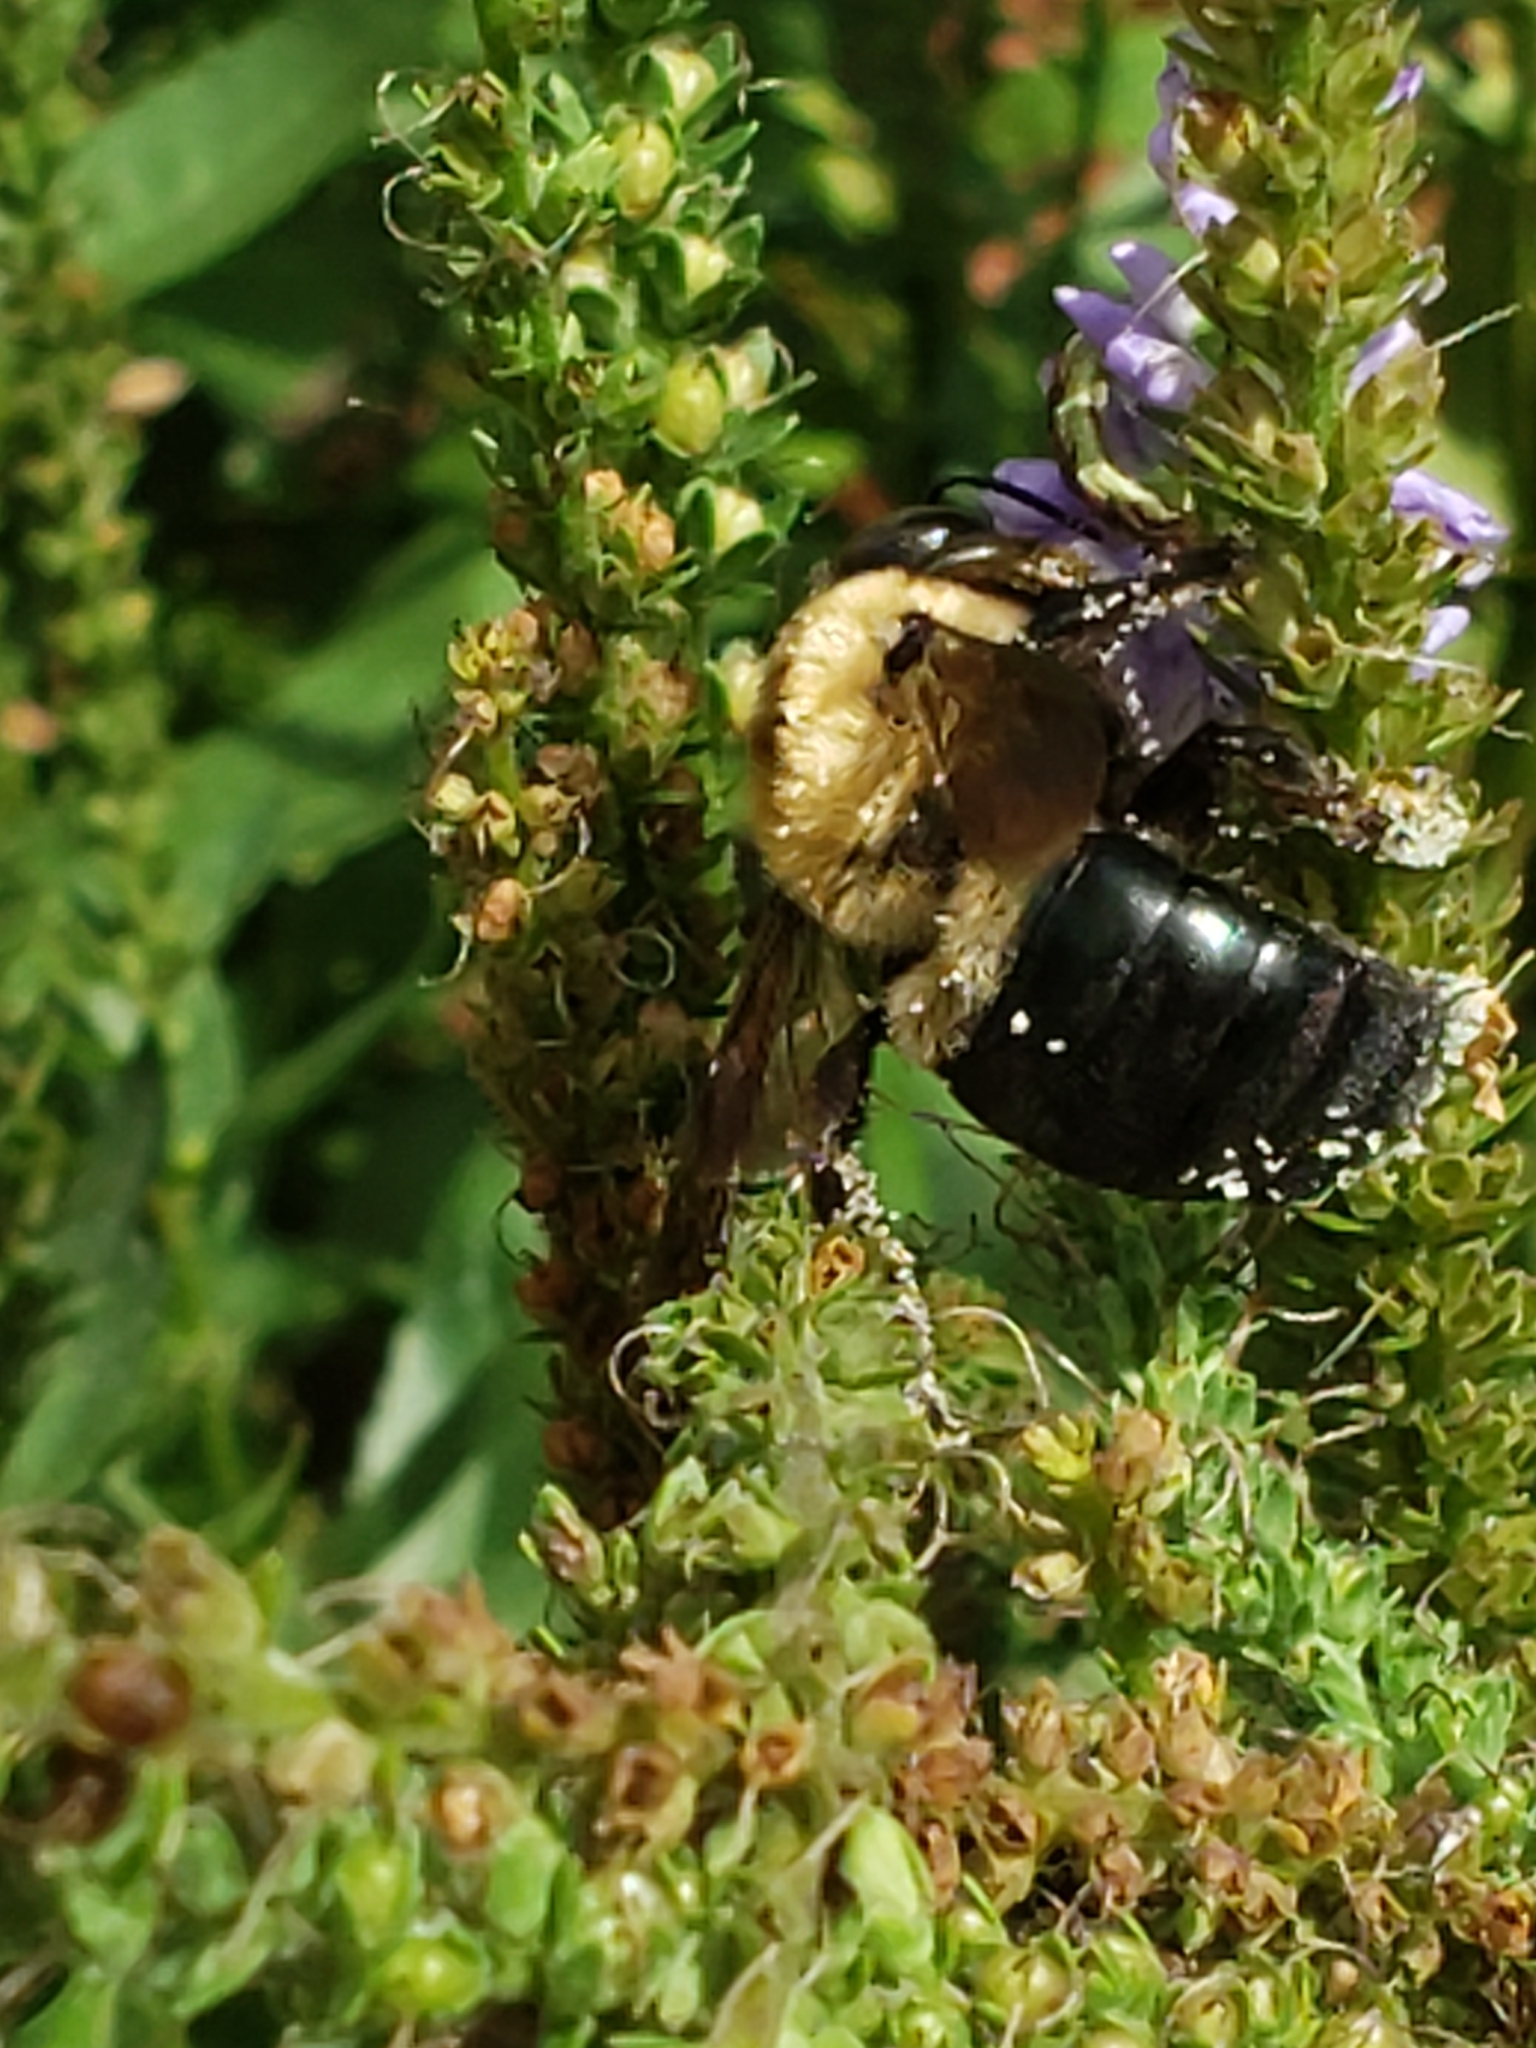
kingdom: Animalia
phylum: Arthropoda
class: Insecta
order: Hymenoptera
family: Apidae
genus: Xylocopa
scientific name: Xylocopa virginica
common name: Carpenter bee
